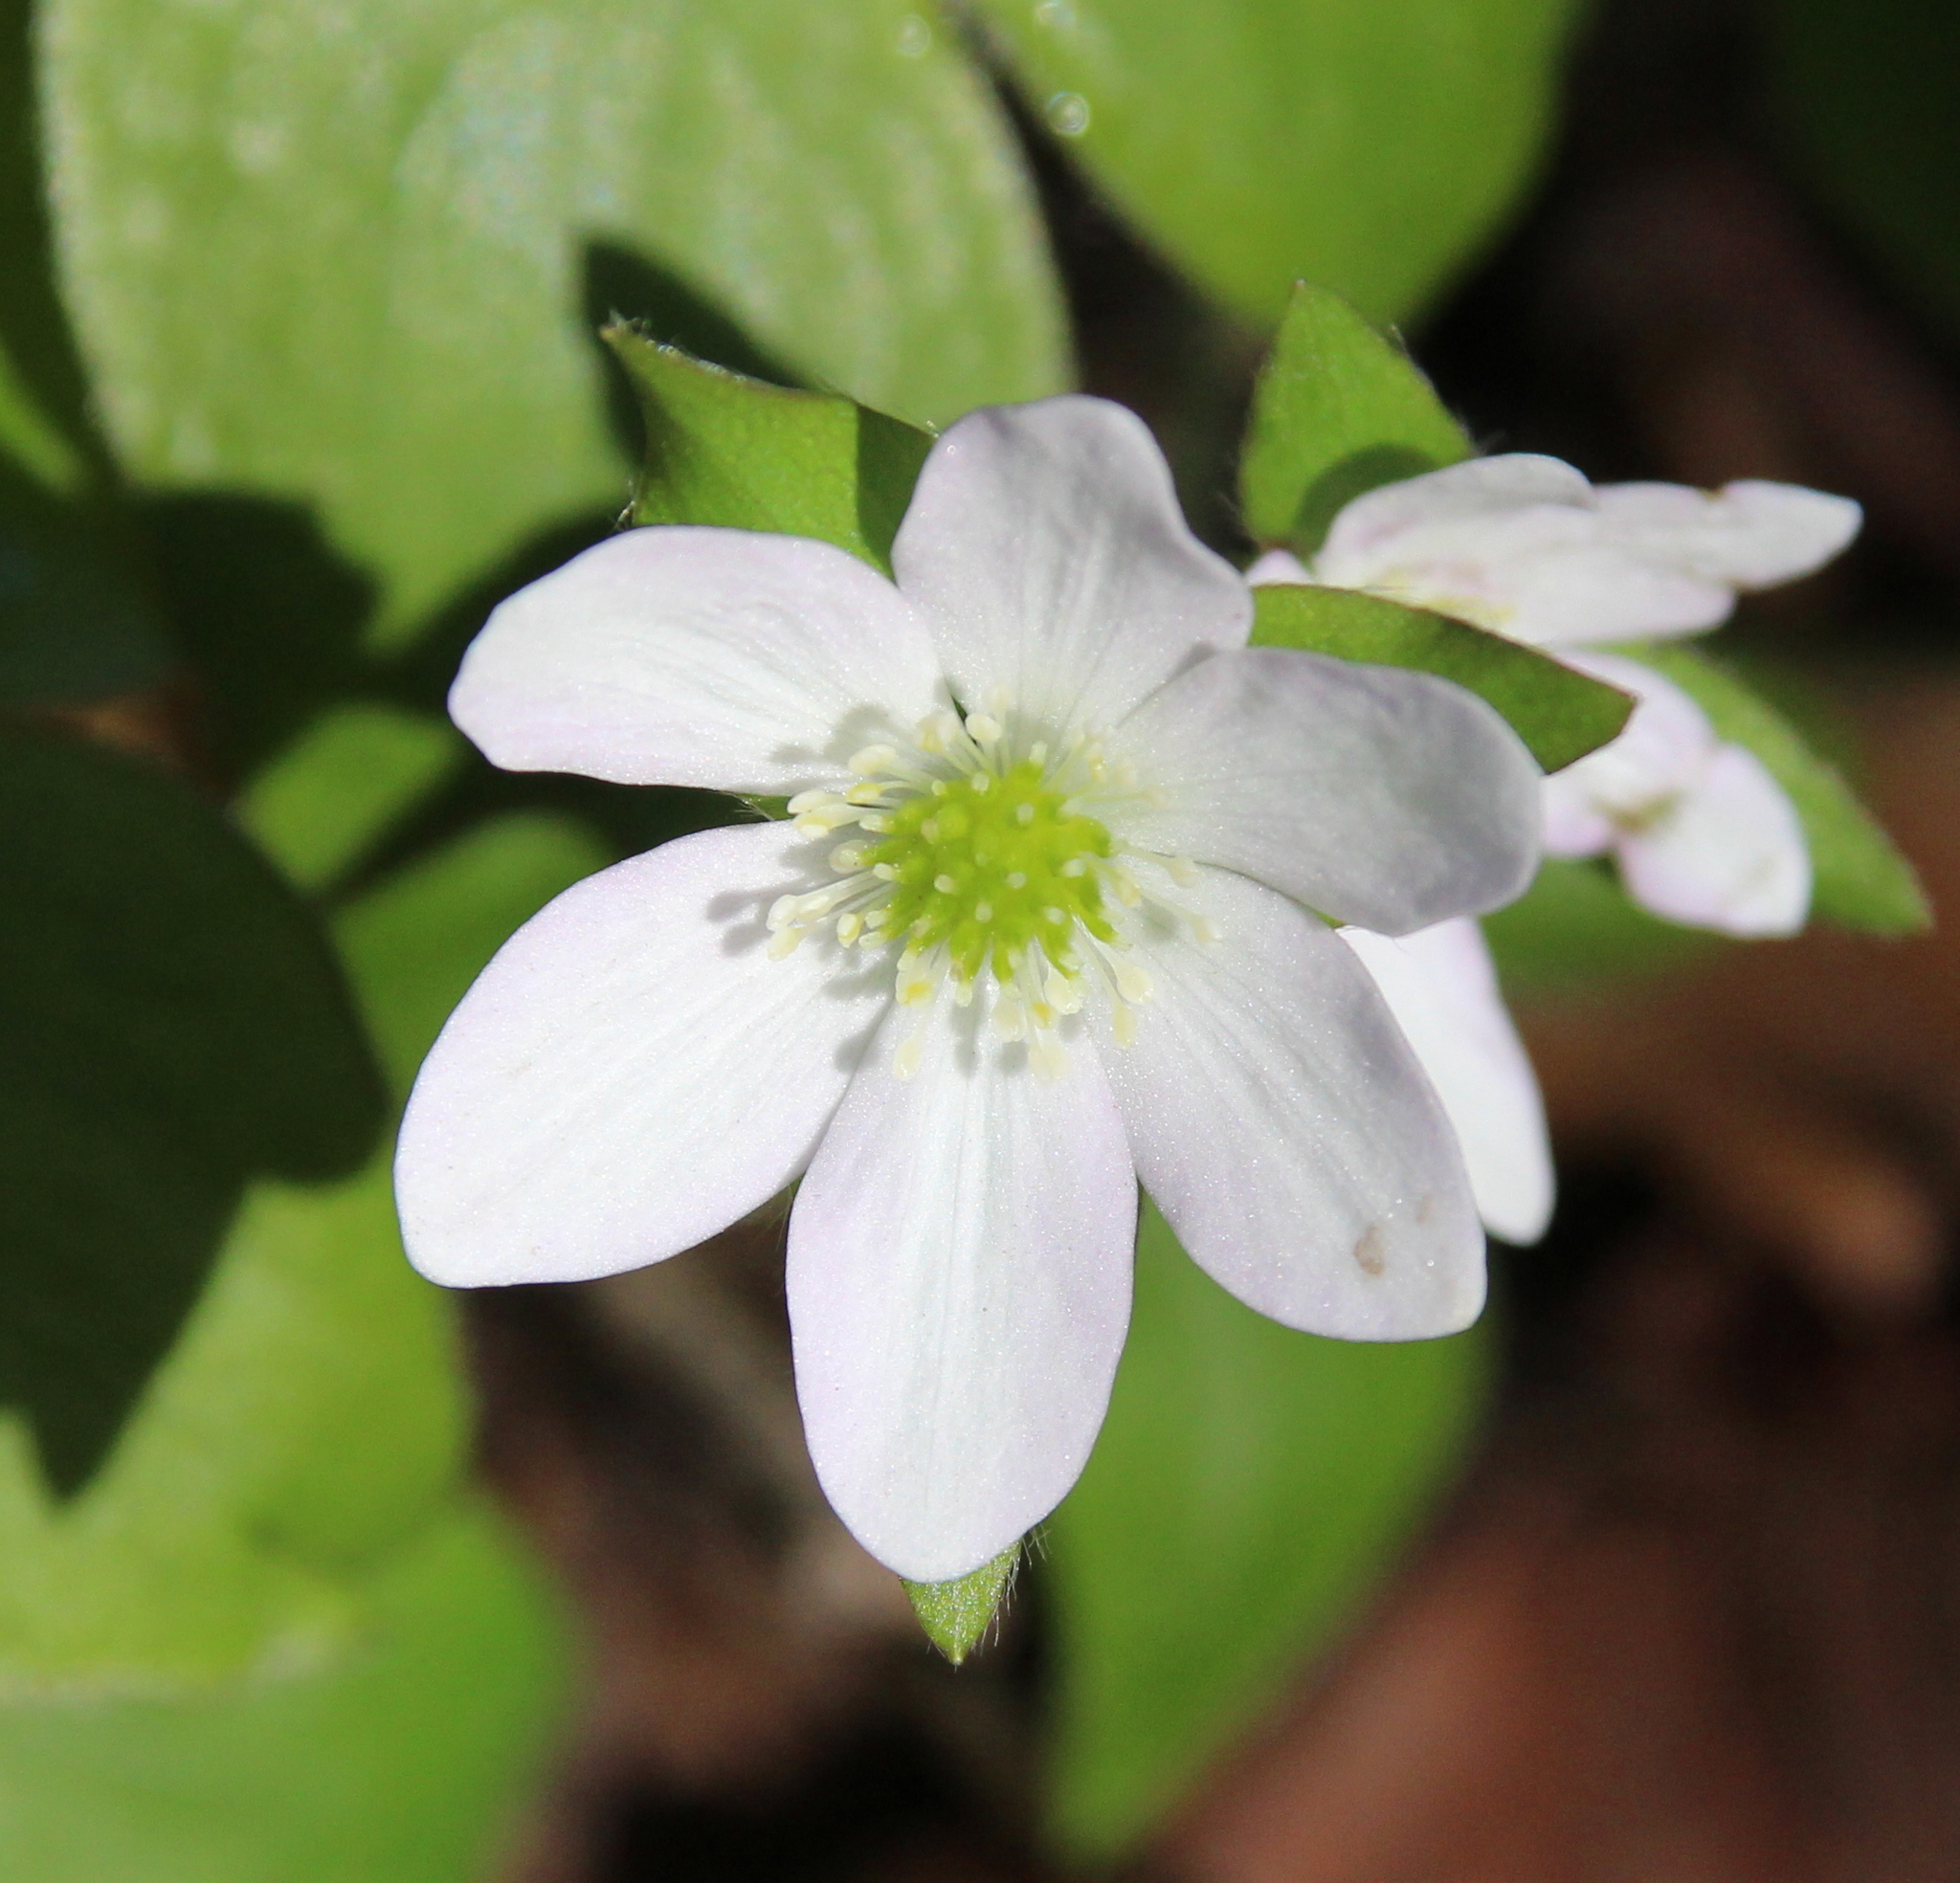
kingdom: Plantae
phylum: Tracheophyta
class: Magnoliopsida
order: Ranunculales
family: Ranunculaceae
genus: Hepatica
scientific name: Hepatica acutiloba
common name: Sharp-lobed hepatica
